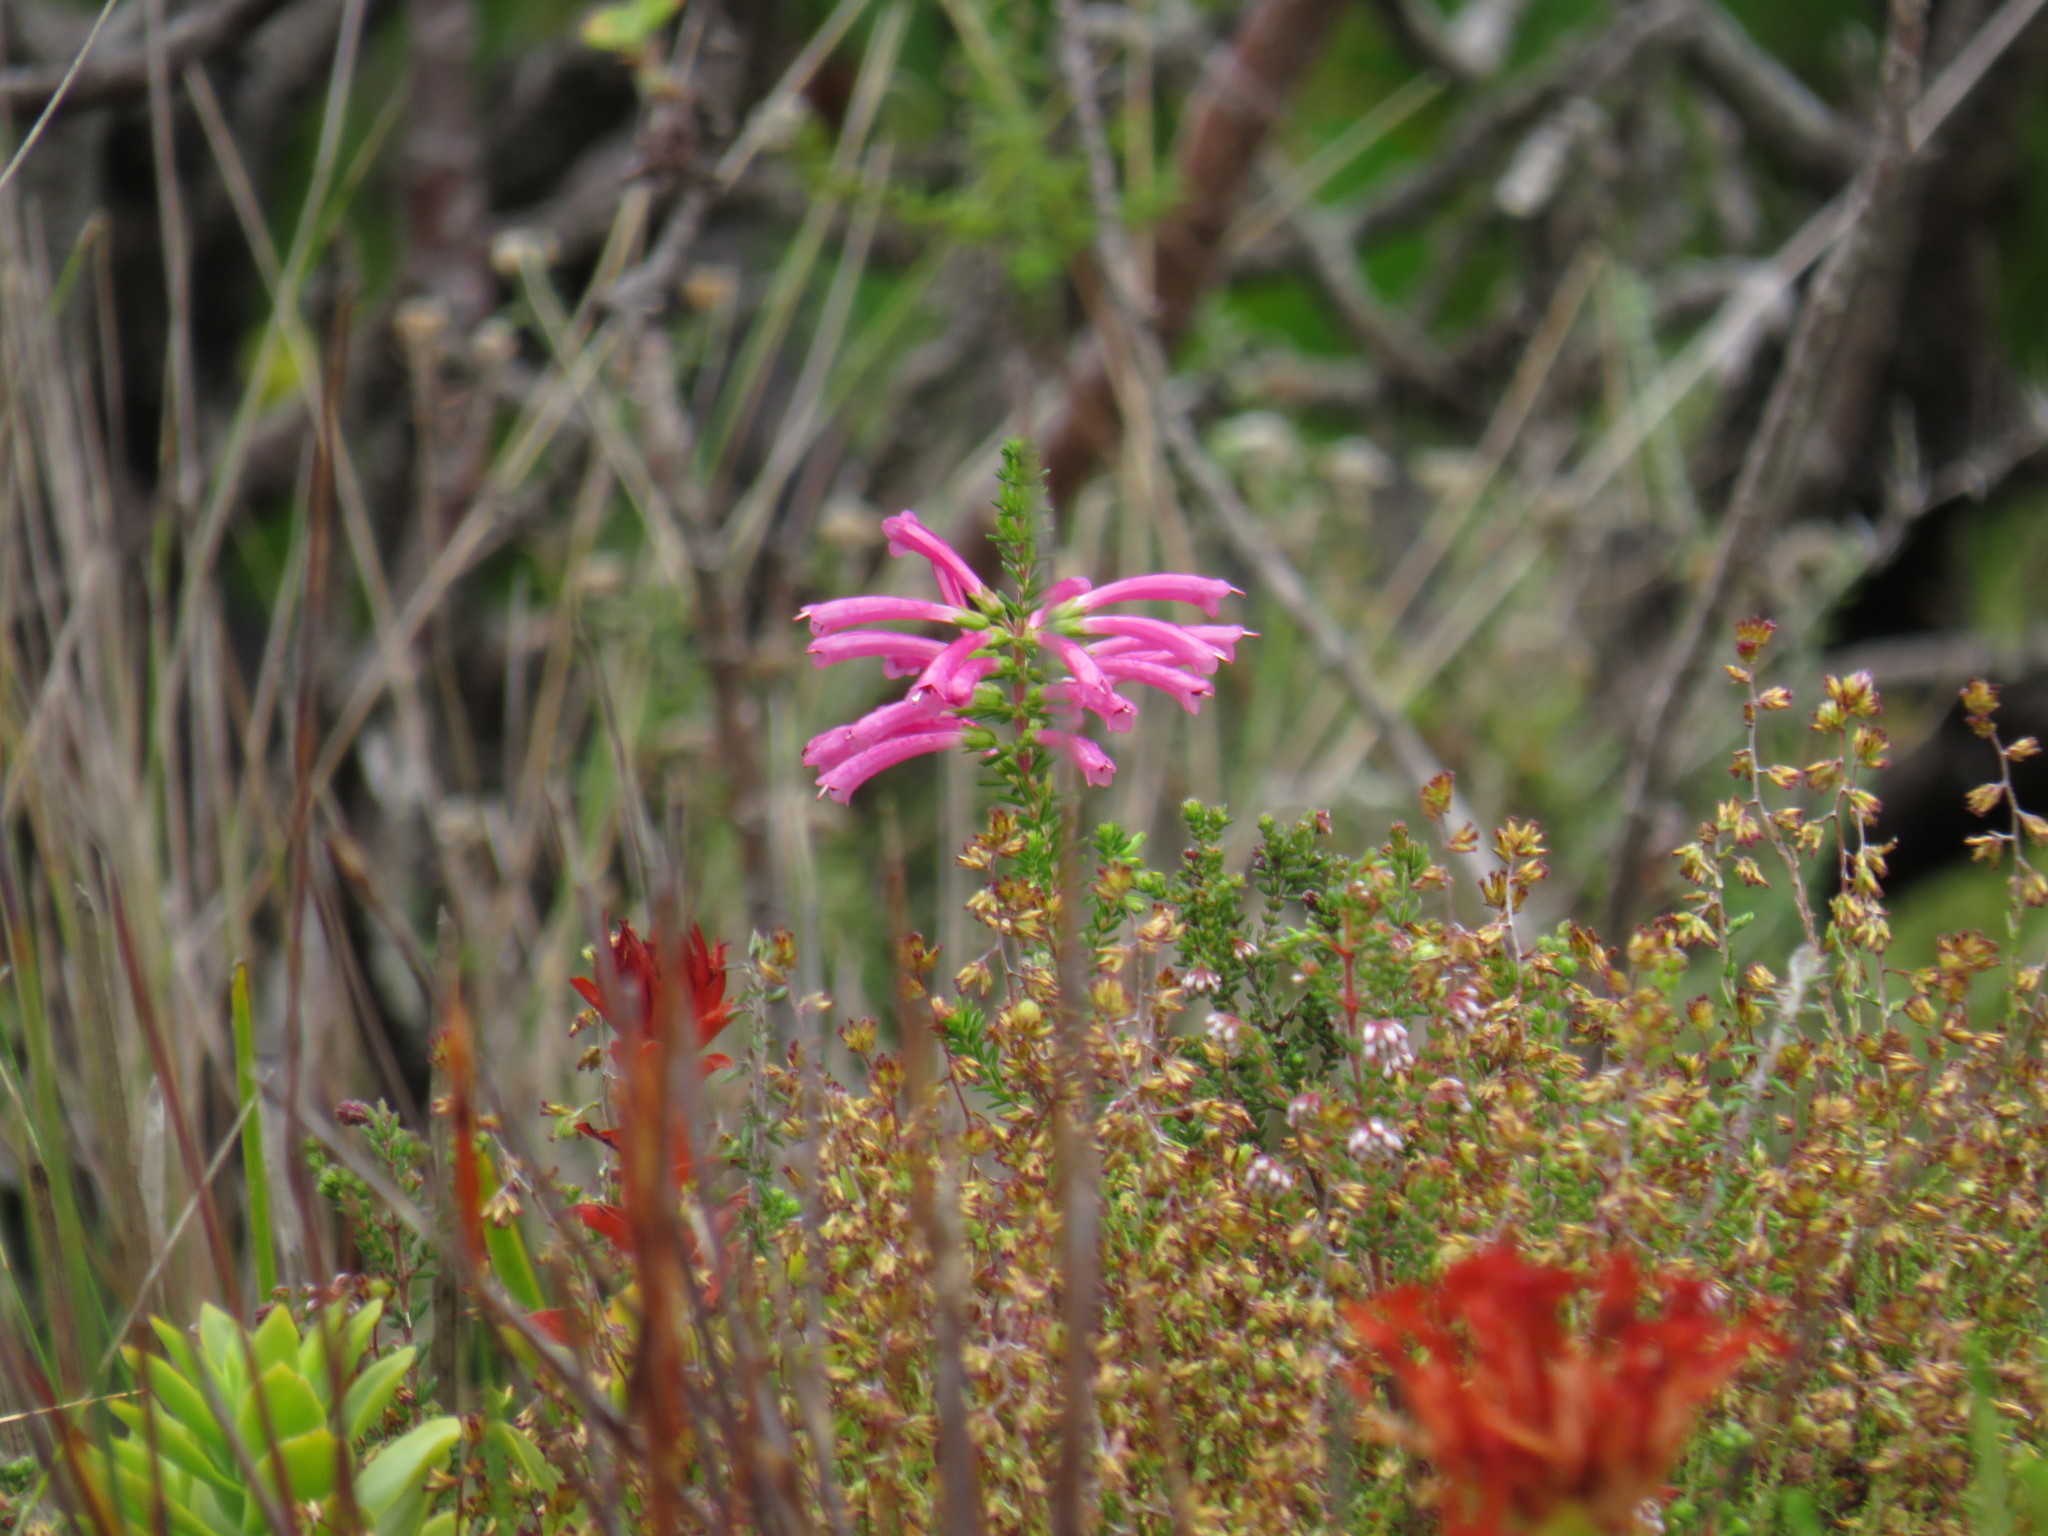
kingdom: Plantae
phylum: Tracheophyta
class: Magnoliopsida
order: Ericales
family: Ericaceae
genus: Erica
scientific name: Erica abietina
